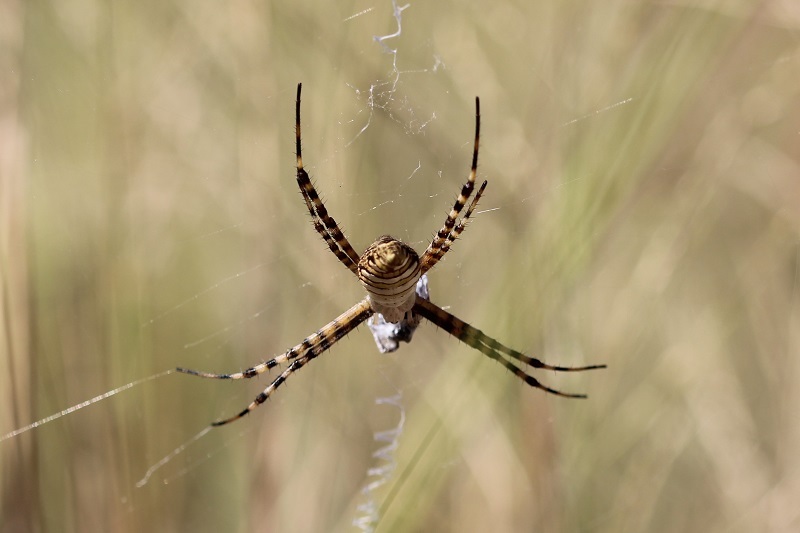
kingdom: Animalia
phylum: Arthropoda
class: Arachnida
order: Araneae
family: Araneidae
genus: Argiope
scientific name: Argiope trifasciata
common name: Banded garden spider
